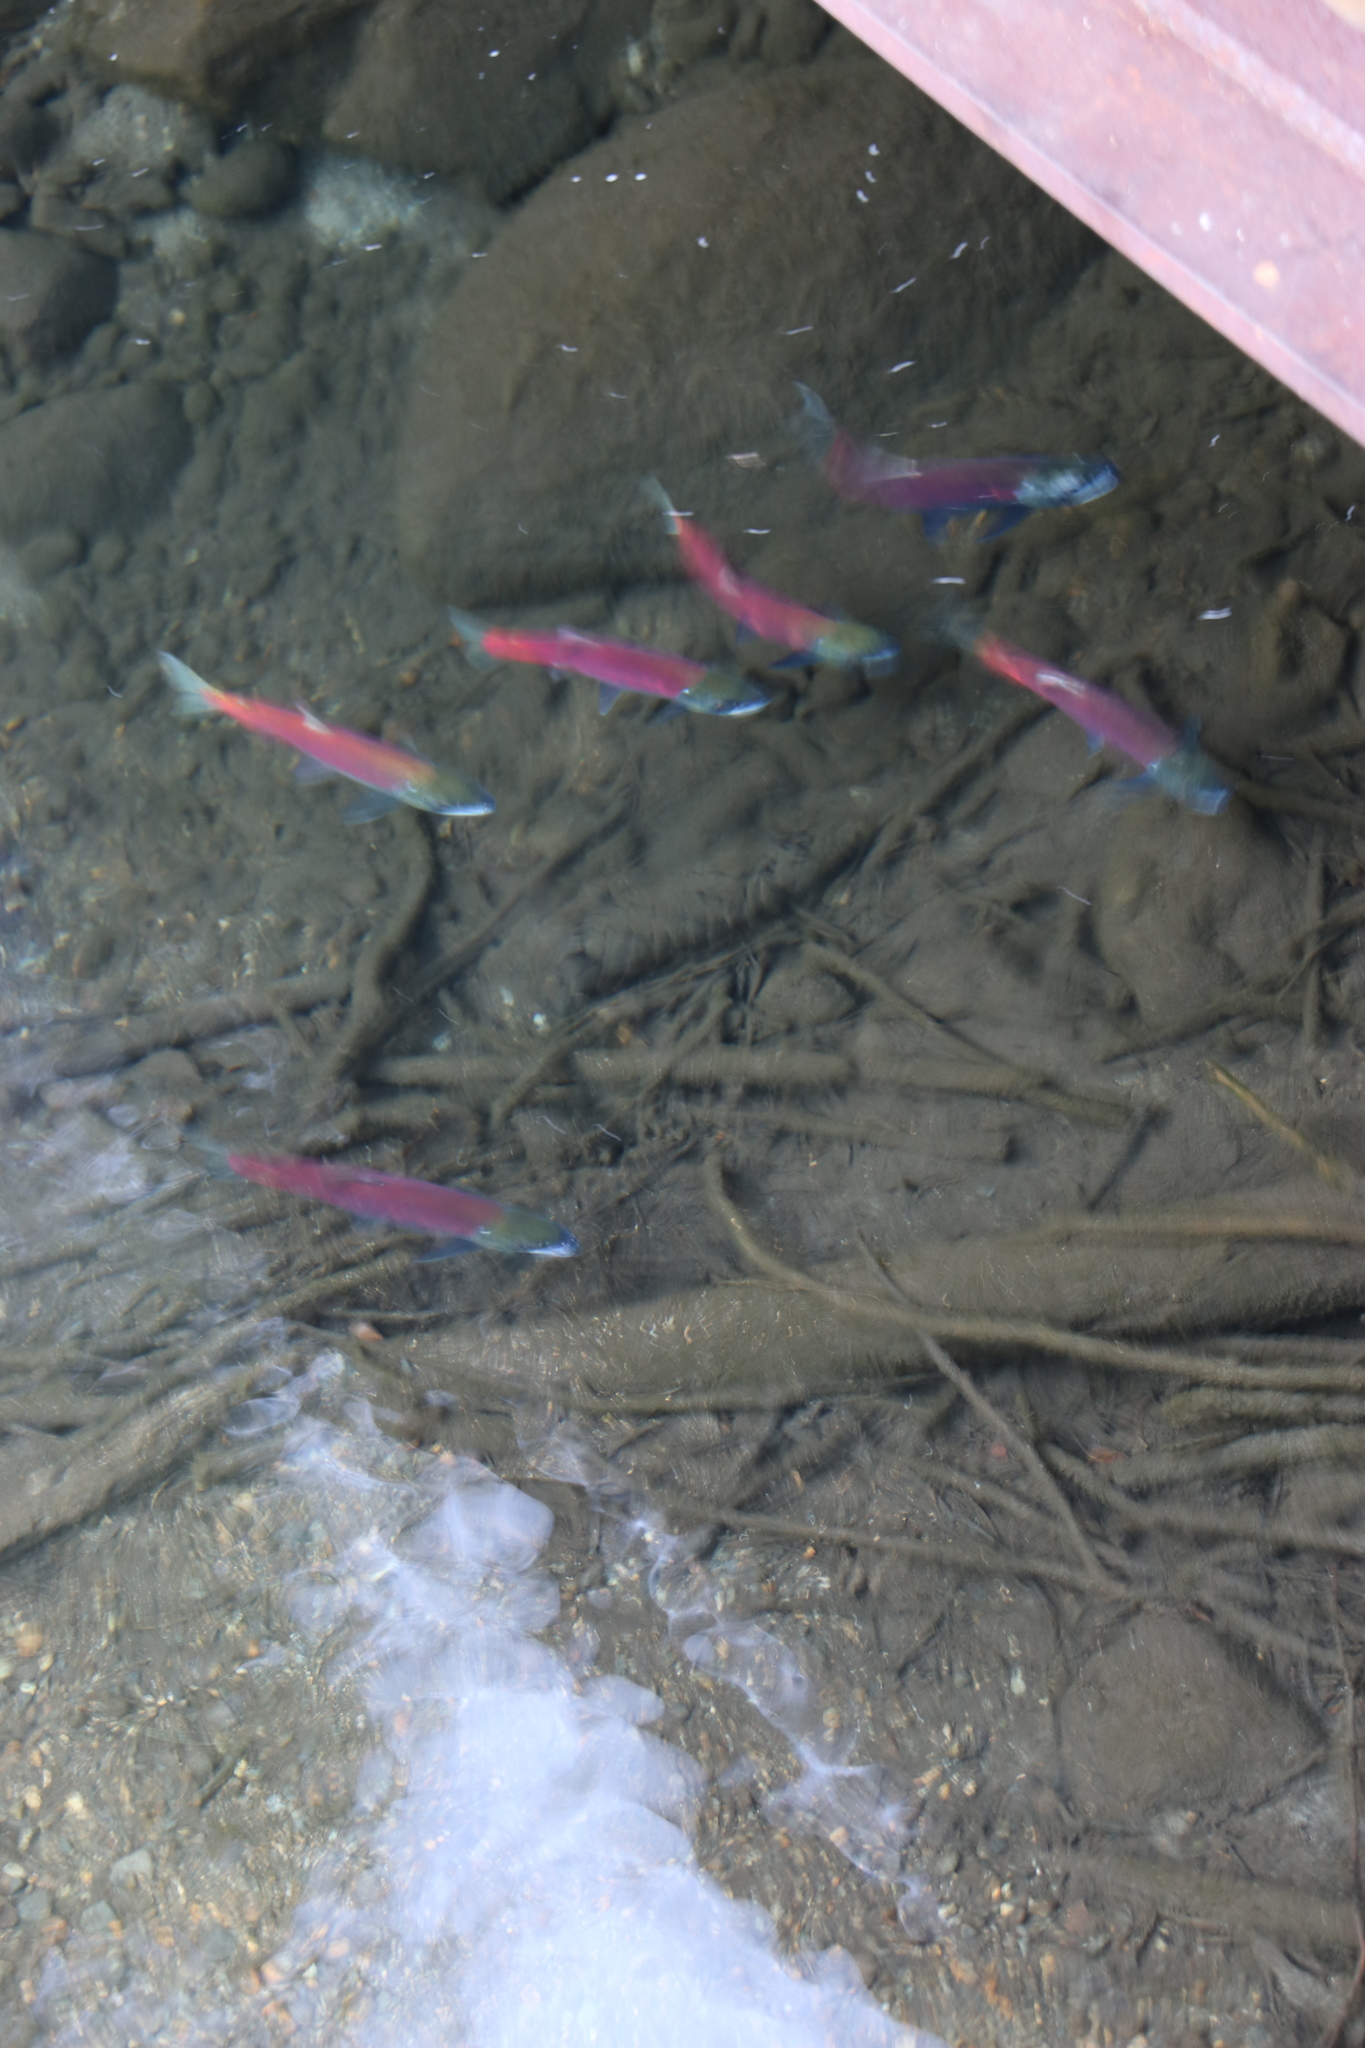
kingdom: Animalia
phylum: Chordata
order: Salmoniformes
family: Salmonidae
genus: Oncorhynchus
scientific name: Oncorhynchus nerka
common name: Sockeye salmon
